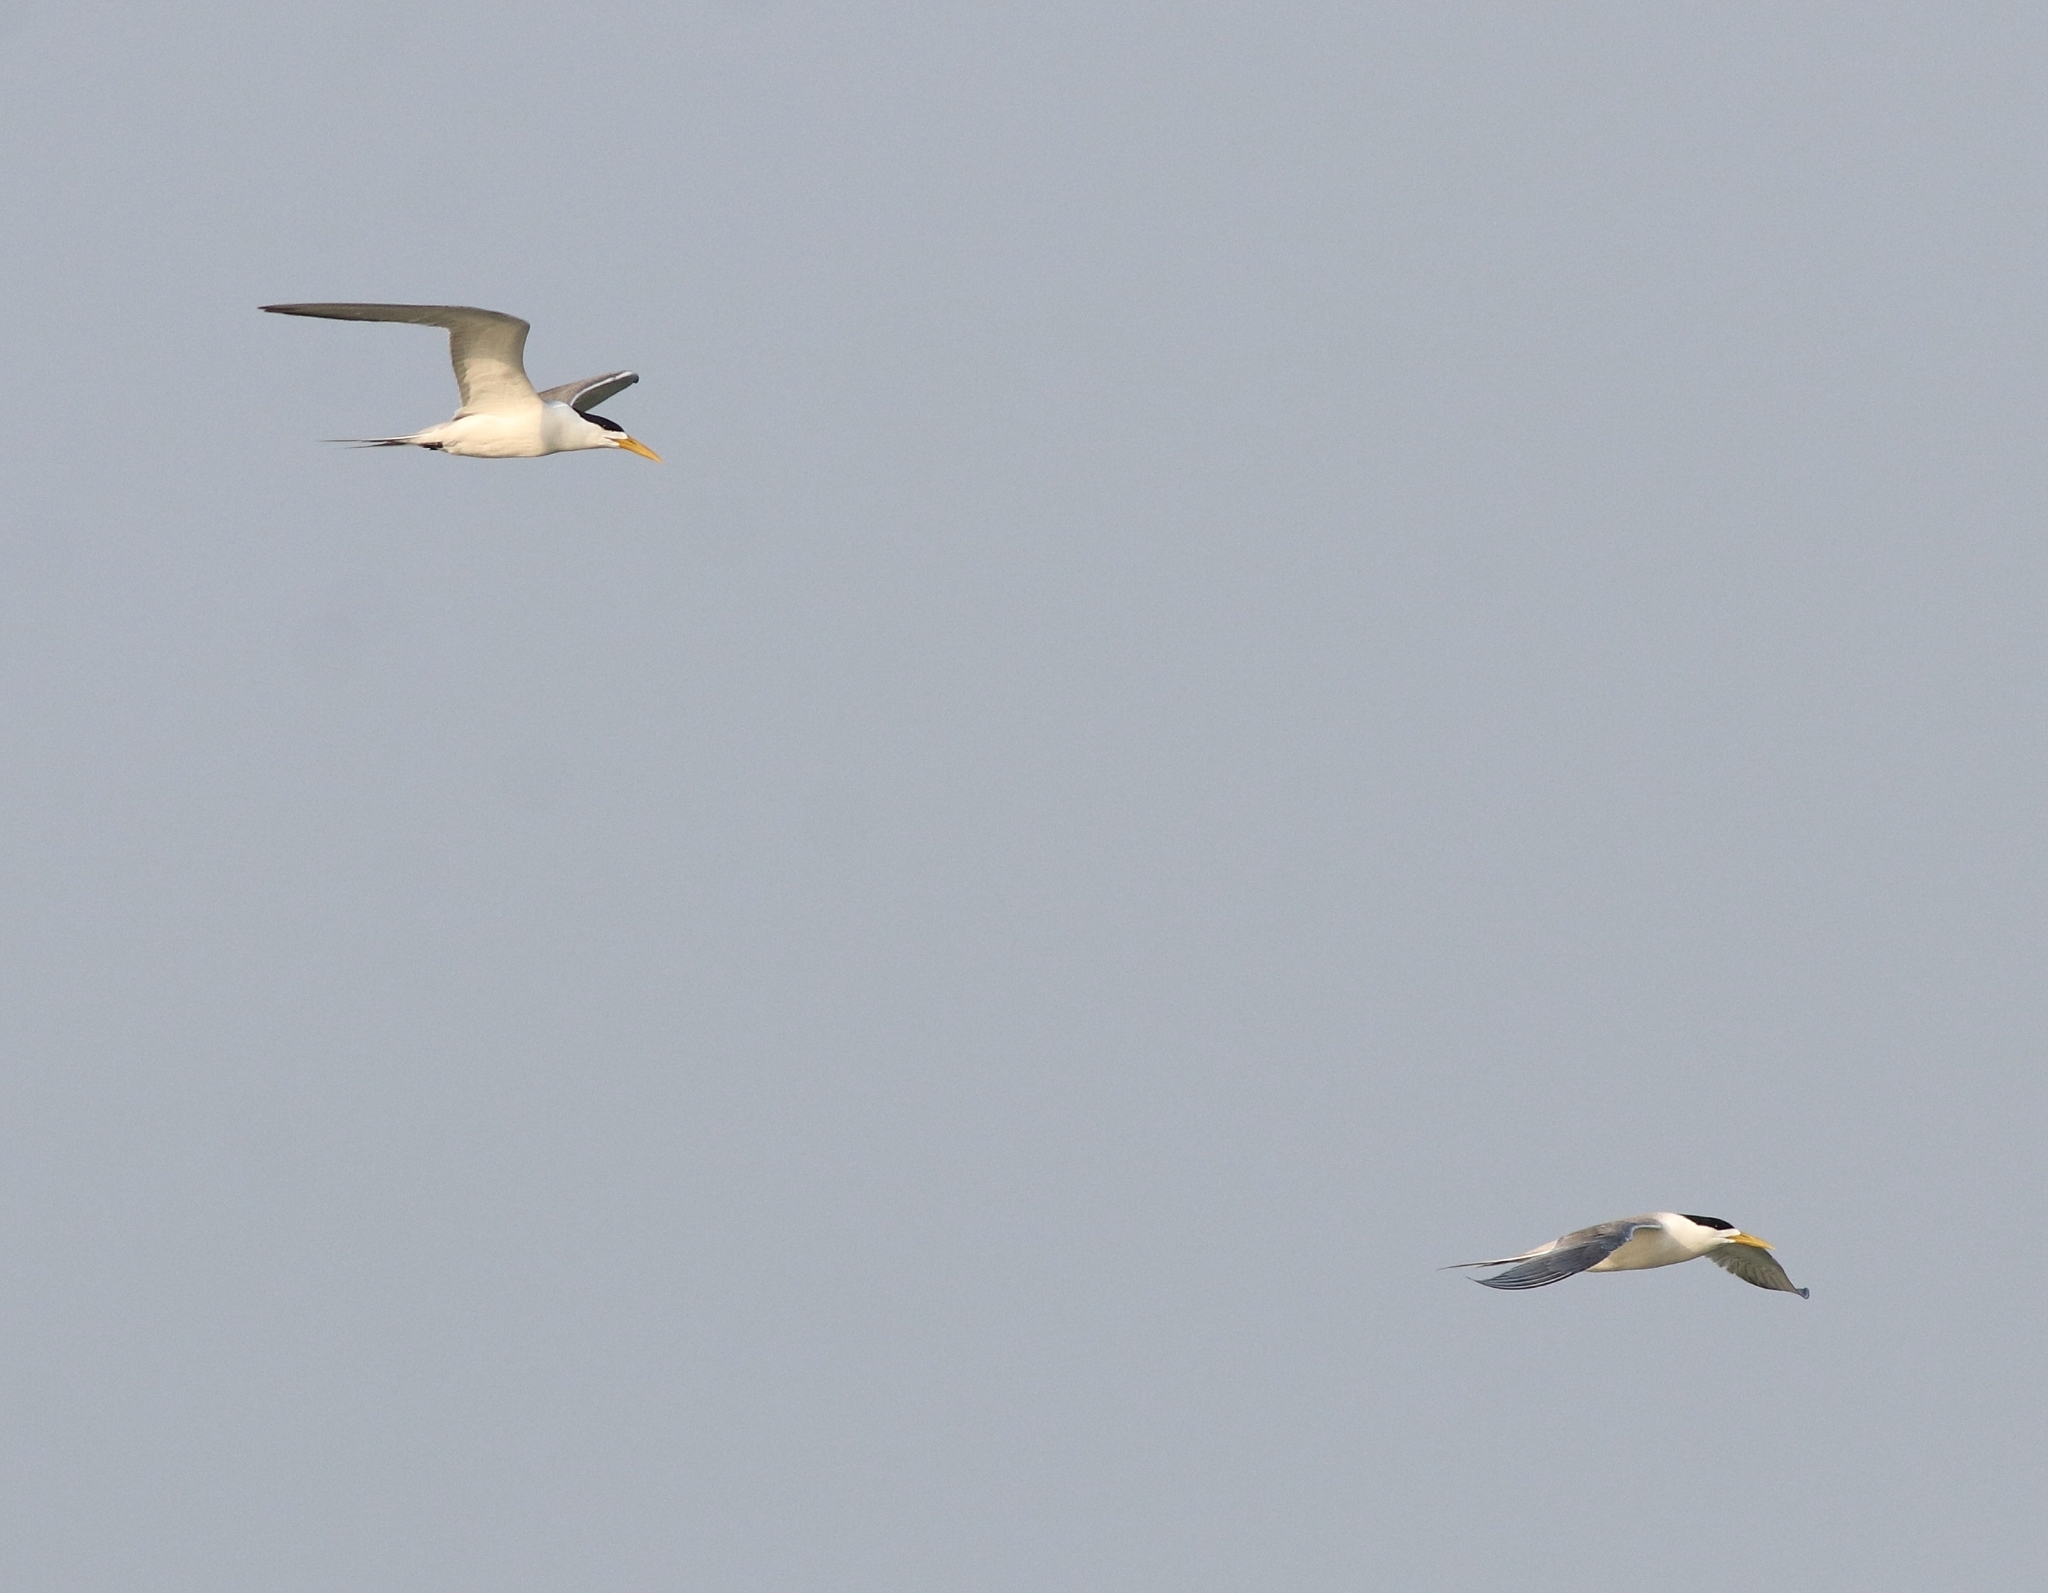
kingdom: Animalia
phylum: Chordata
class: Aves
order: Charadriiformes
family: Laridae
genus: Thalasseus
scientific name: Thalasseus bergii
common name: Greater crested tern
